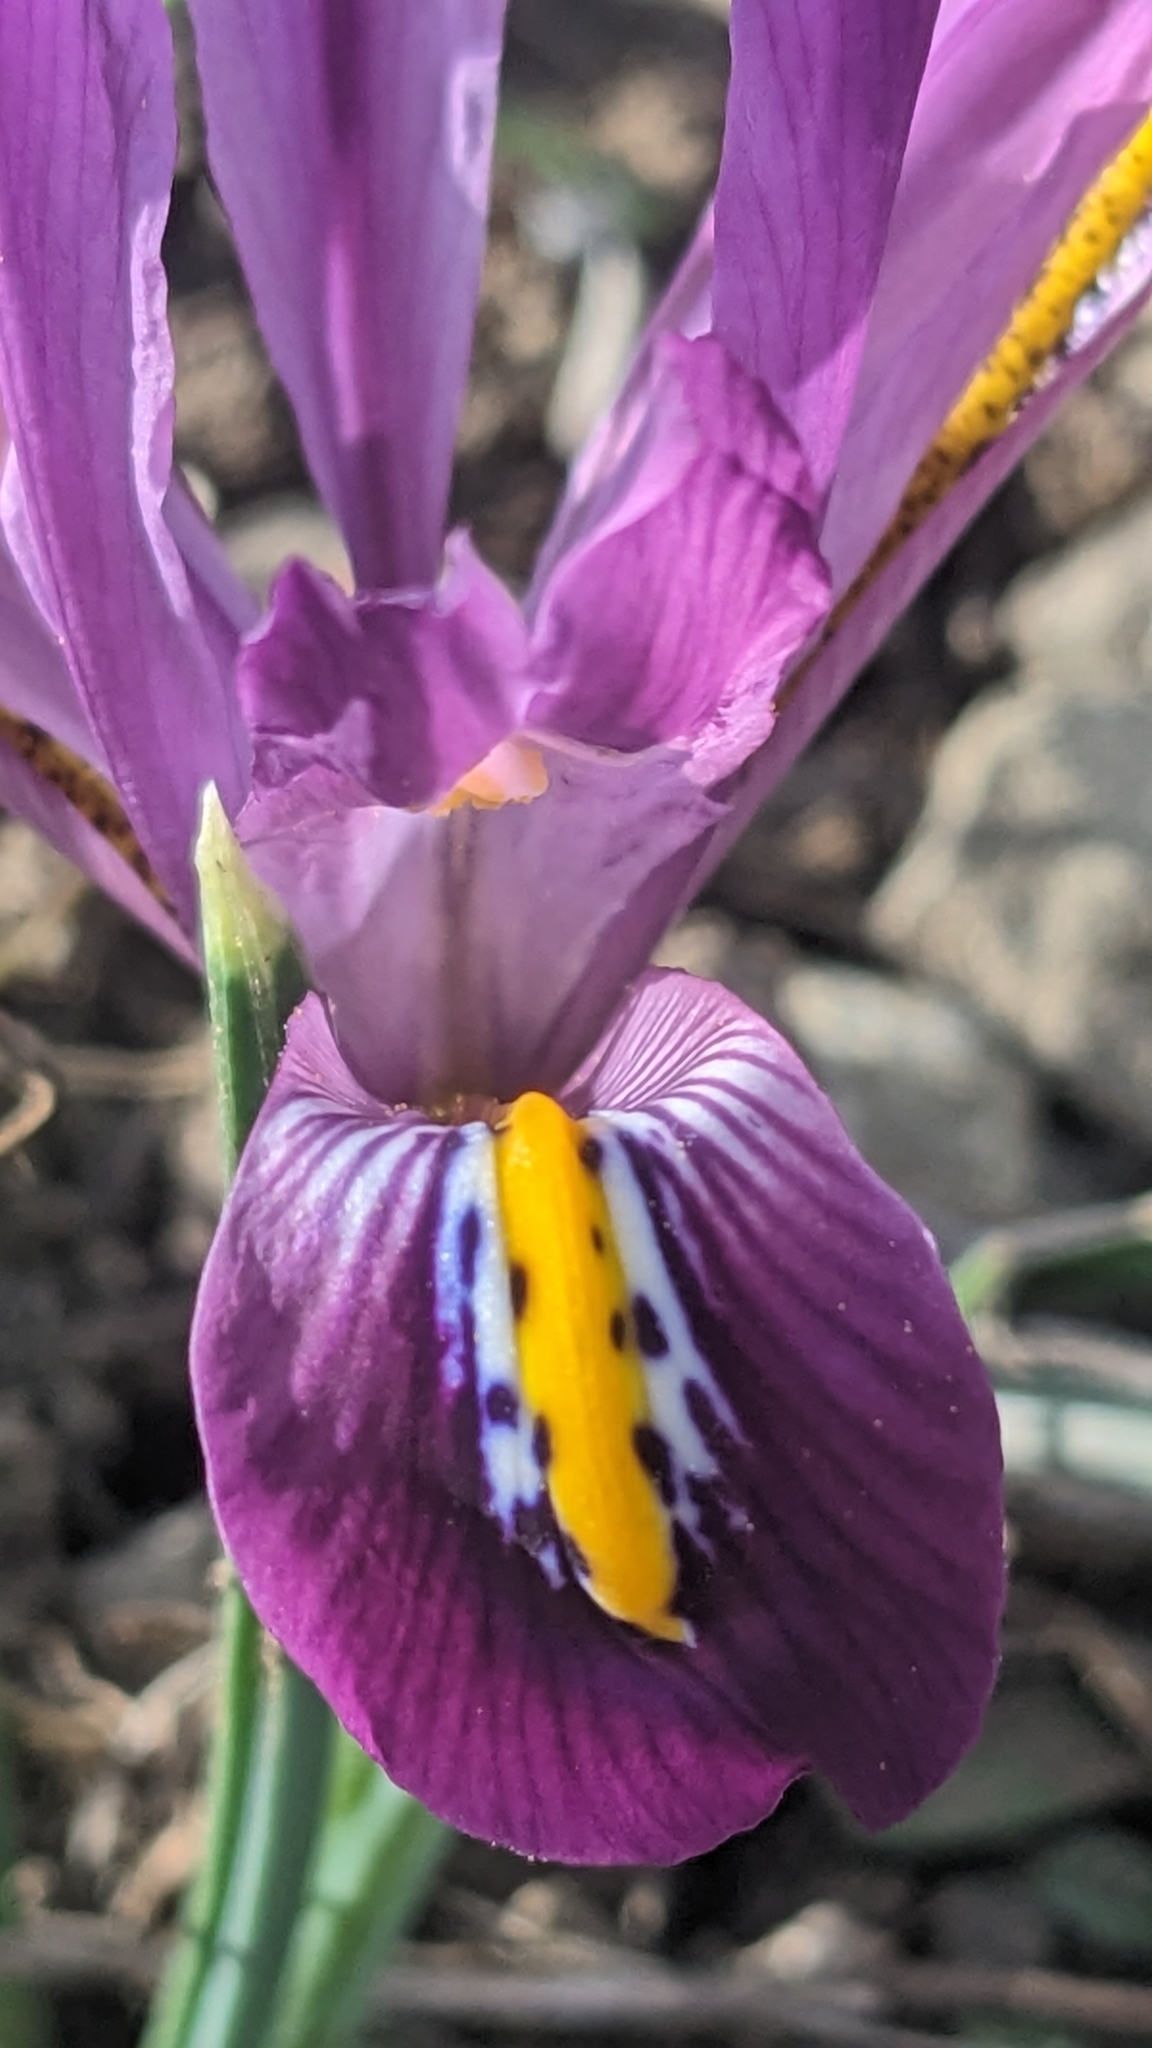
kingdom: Plantae
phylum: Tracheophyta
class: Liliopsida
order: Asparagales
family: Iridaceae
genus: Iris
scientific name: Iris reticulata
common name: Netted iris
